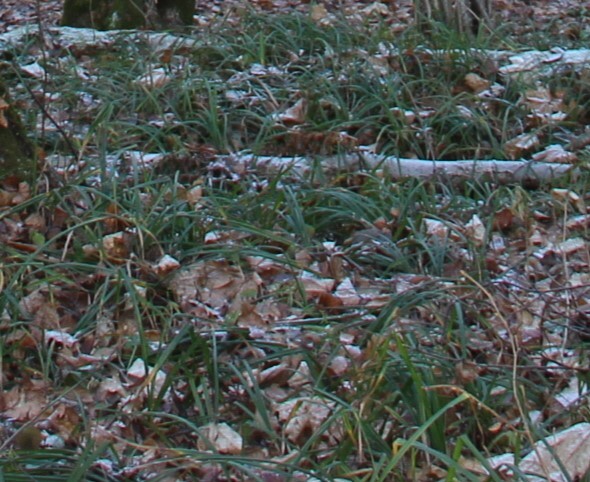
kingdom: Plantae
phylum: Tracheophyta
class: Liliopsida
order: Poales
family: Cyperaceae
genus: Carex
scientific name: Carex pilosa
